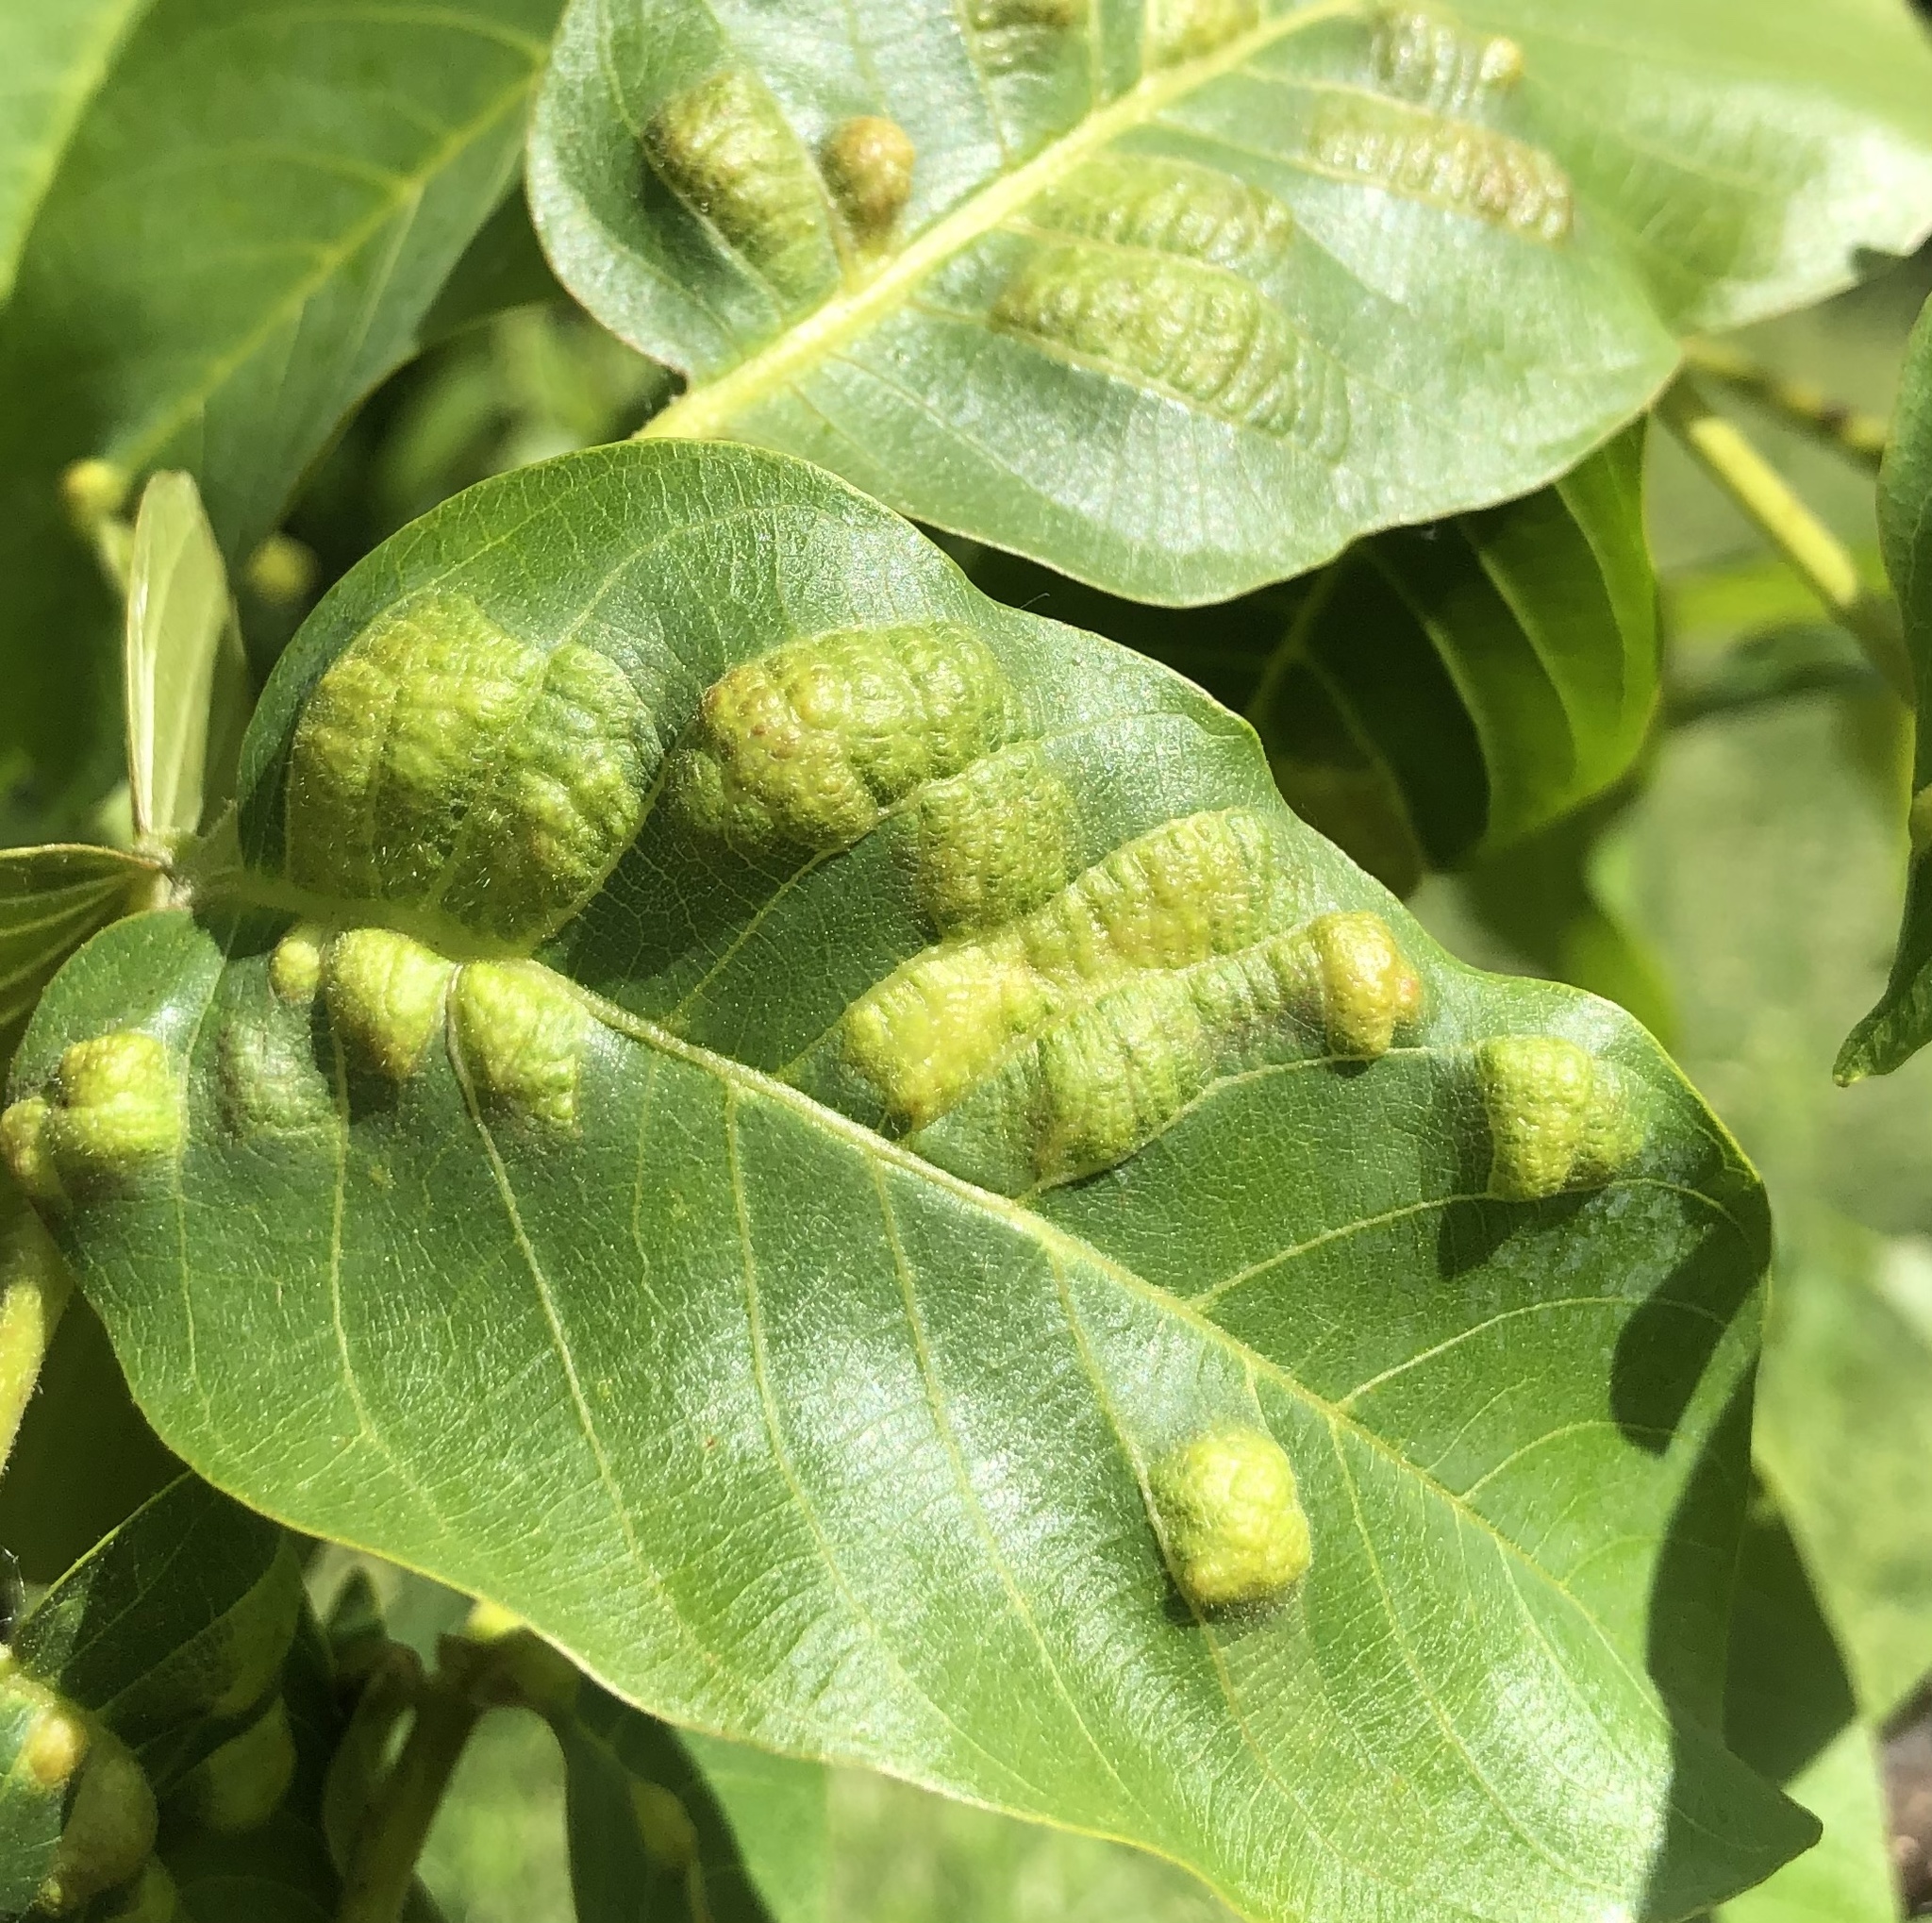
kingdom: Animalia
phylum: Arthropoda
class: Arachnida
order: Trombidiformes
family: Eriophyidae
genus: Aceria
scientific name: Aceria erinea
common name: Persian walnut erineum mite
